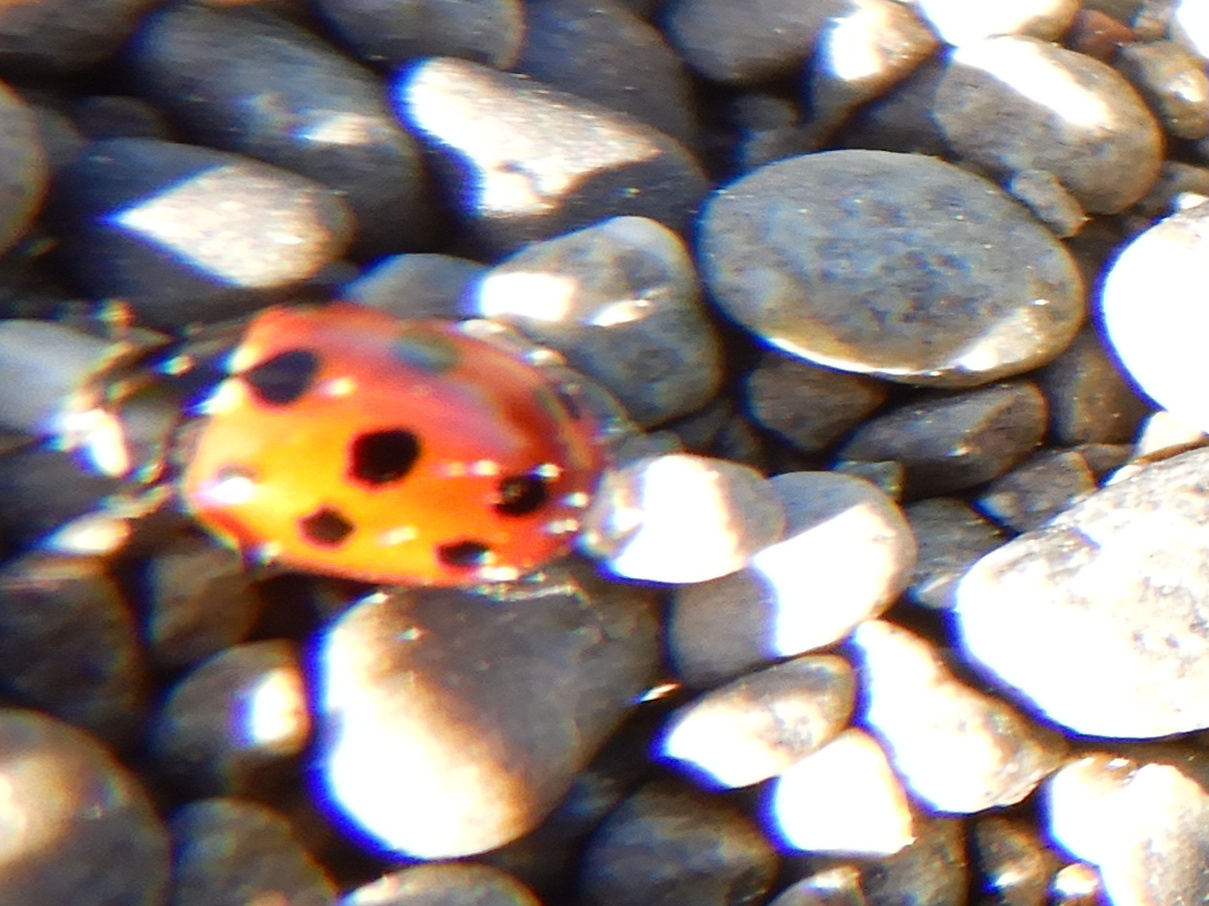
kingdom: Animalia
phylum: Arthropoda
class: Insecta
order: Coleoptera
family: Coccinellidae
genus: Coccinella
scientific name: Coccinella undecimpunctata
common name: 11-spot ladybird
